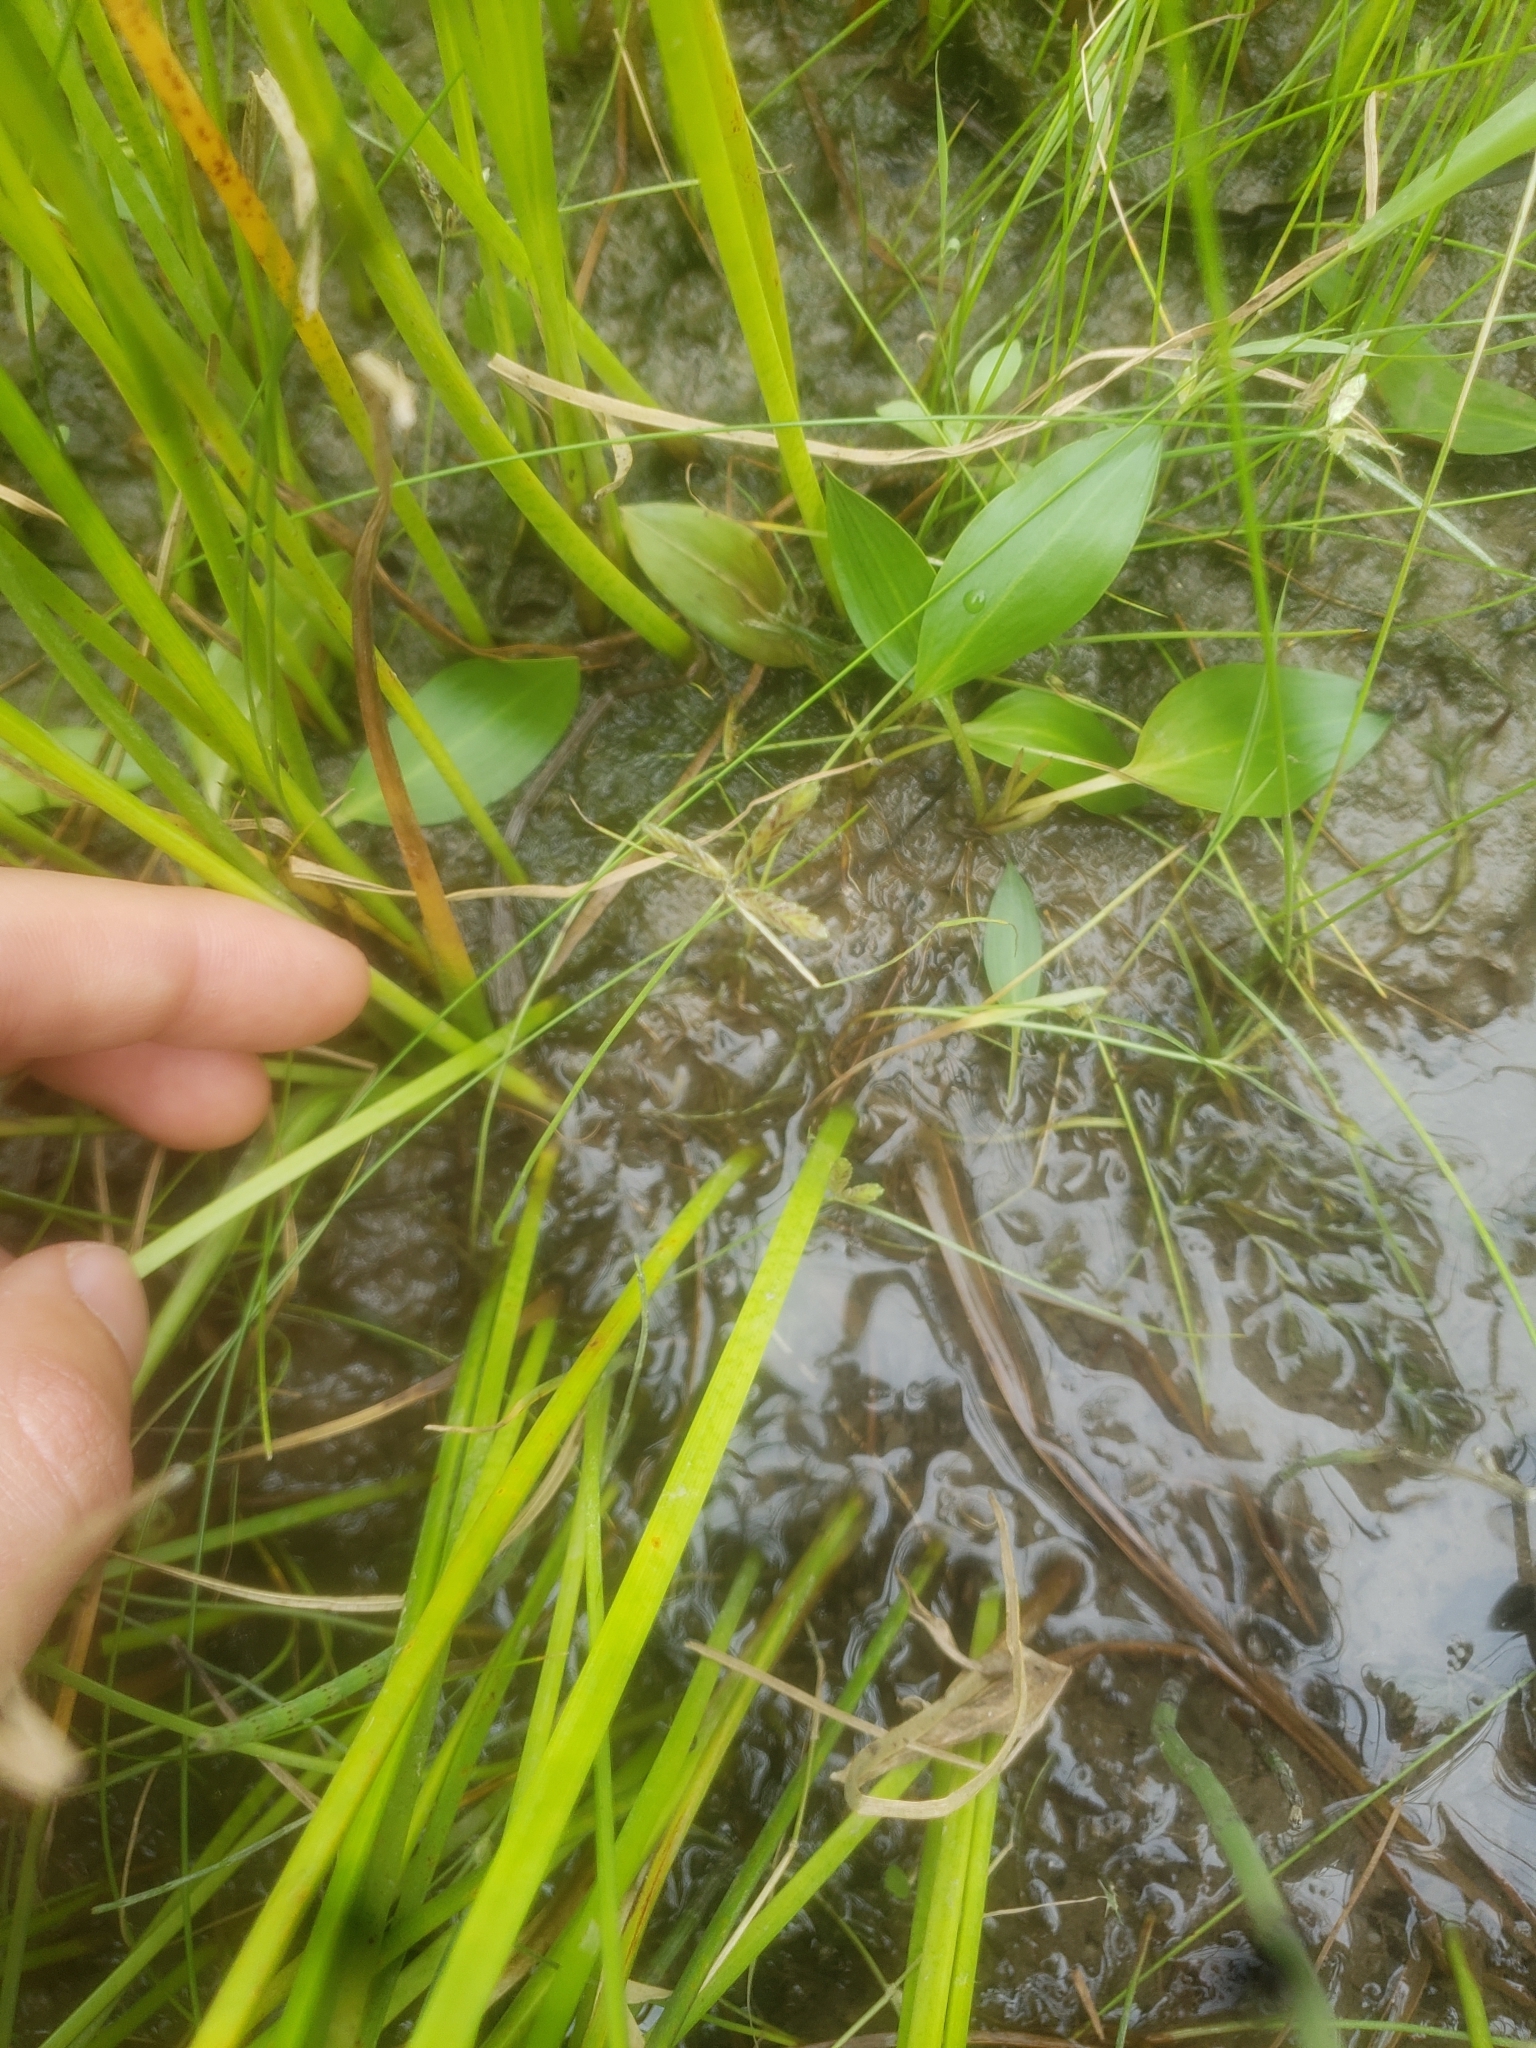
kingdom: Plantae
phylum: Tracheophyta
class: Liliopsida
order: Poales
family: Cyperaceae
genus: Cyperus
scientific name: Cyperus bipartitus
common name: Brook flatsedge
